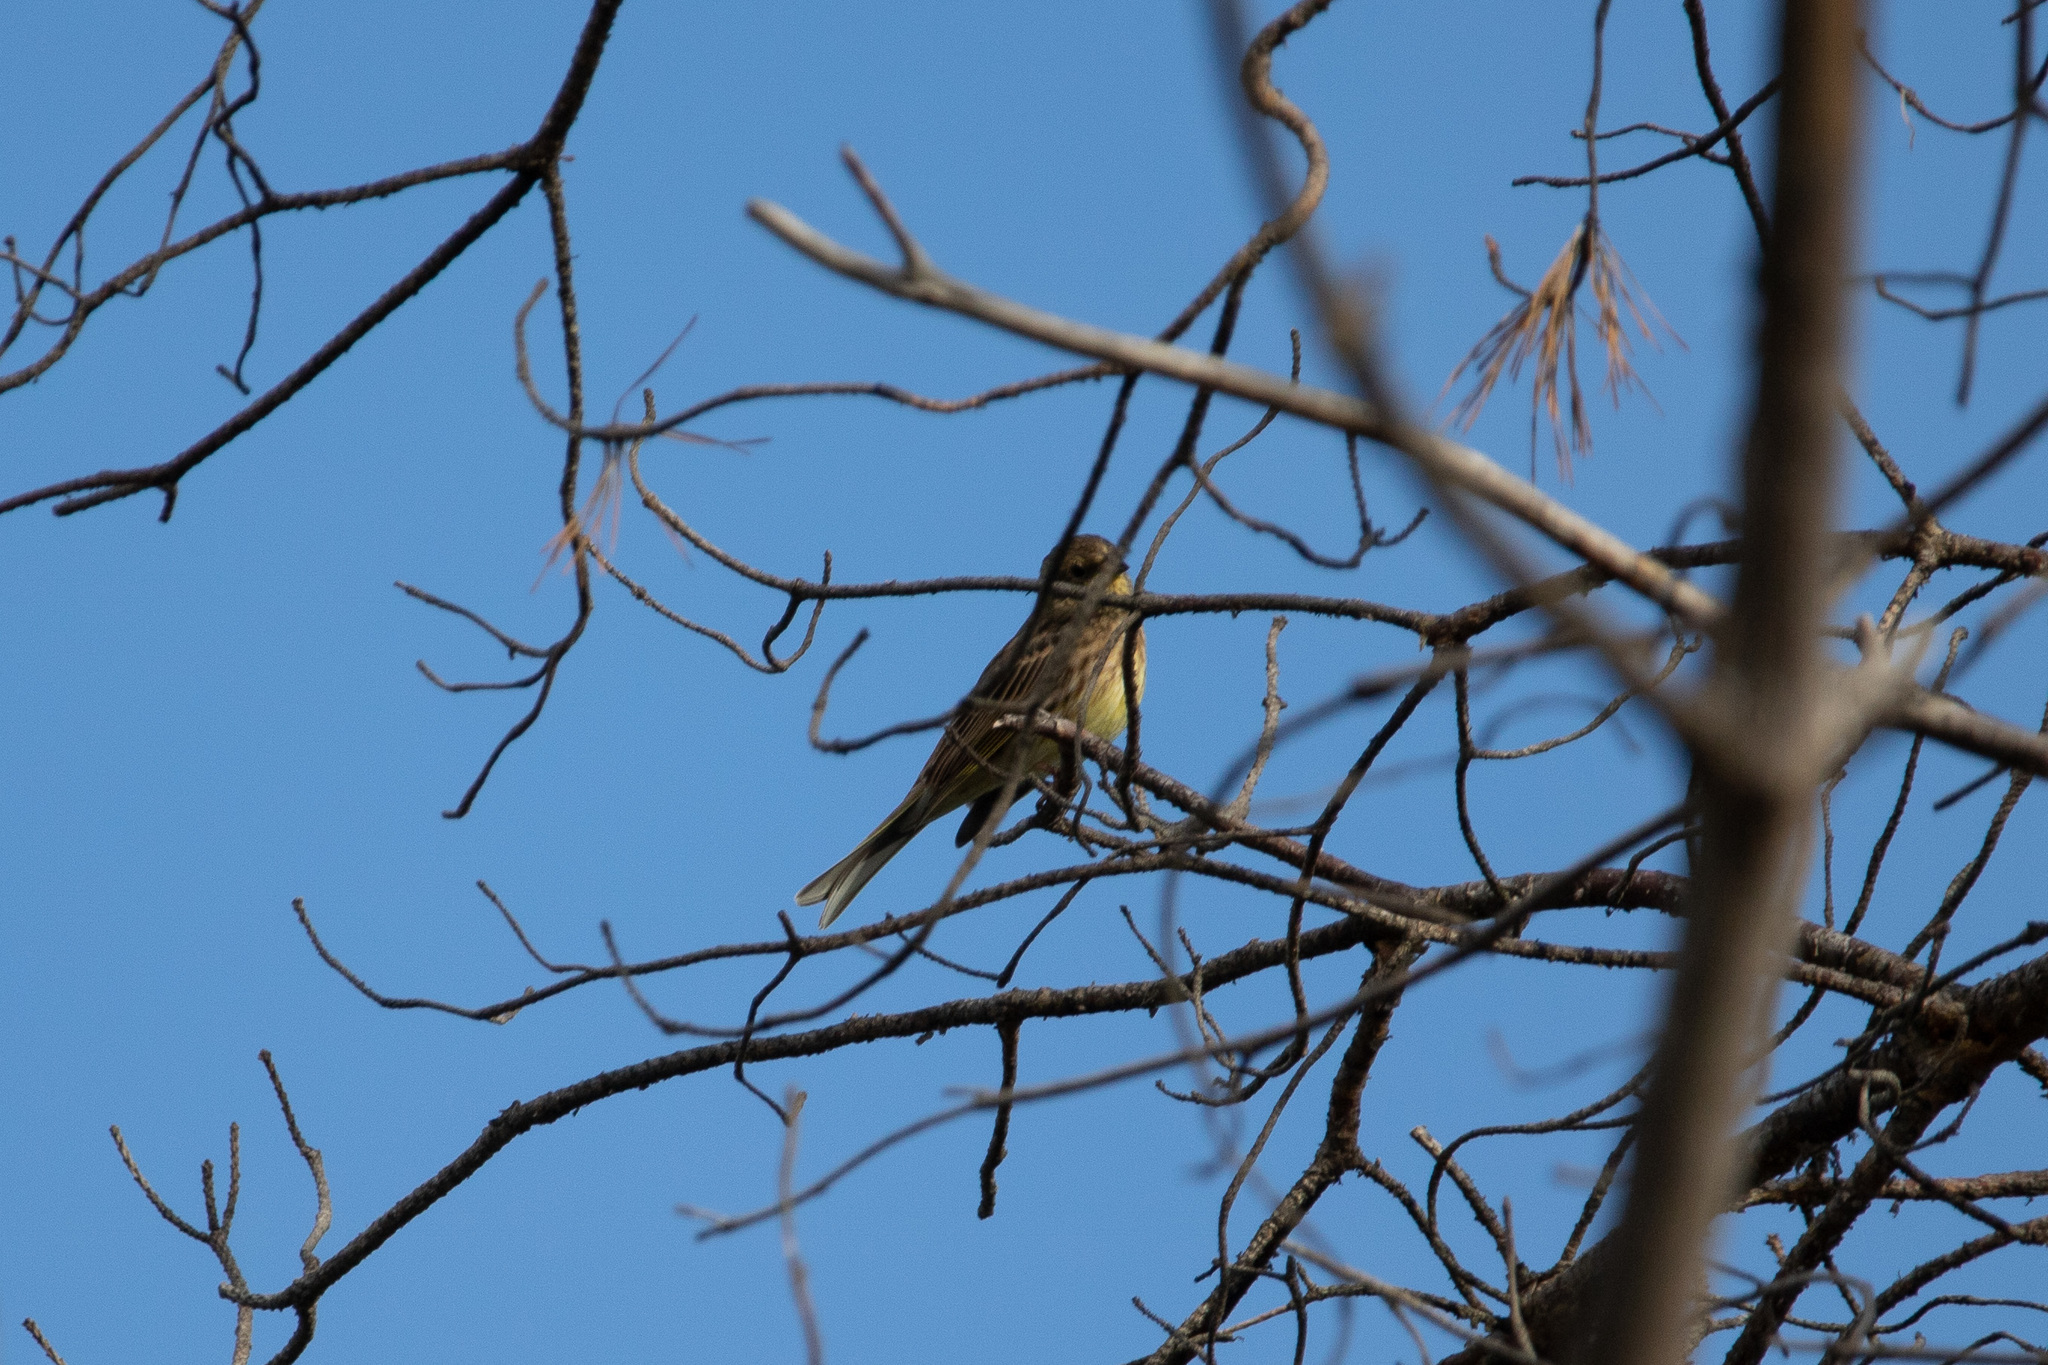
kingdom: Animalia
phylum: Chordata
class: Aves
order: Passeriformes
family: Emberizidae
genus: Emberiza
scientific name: Emberiza citrinella
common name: Yellowhammer
